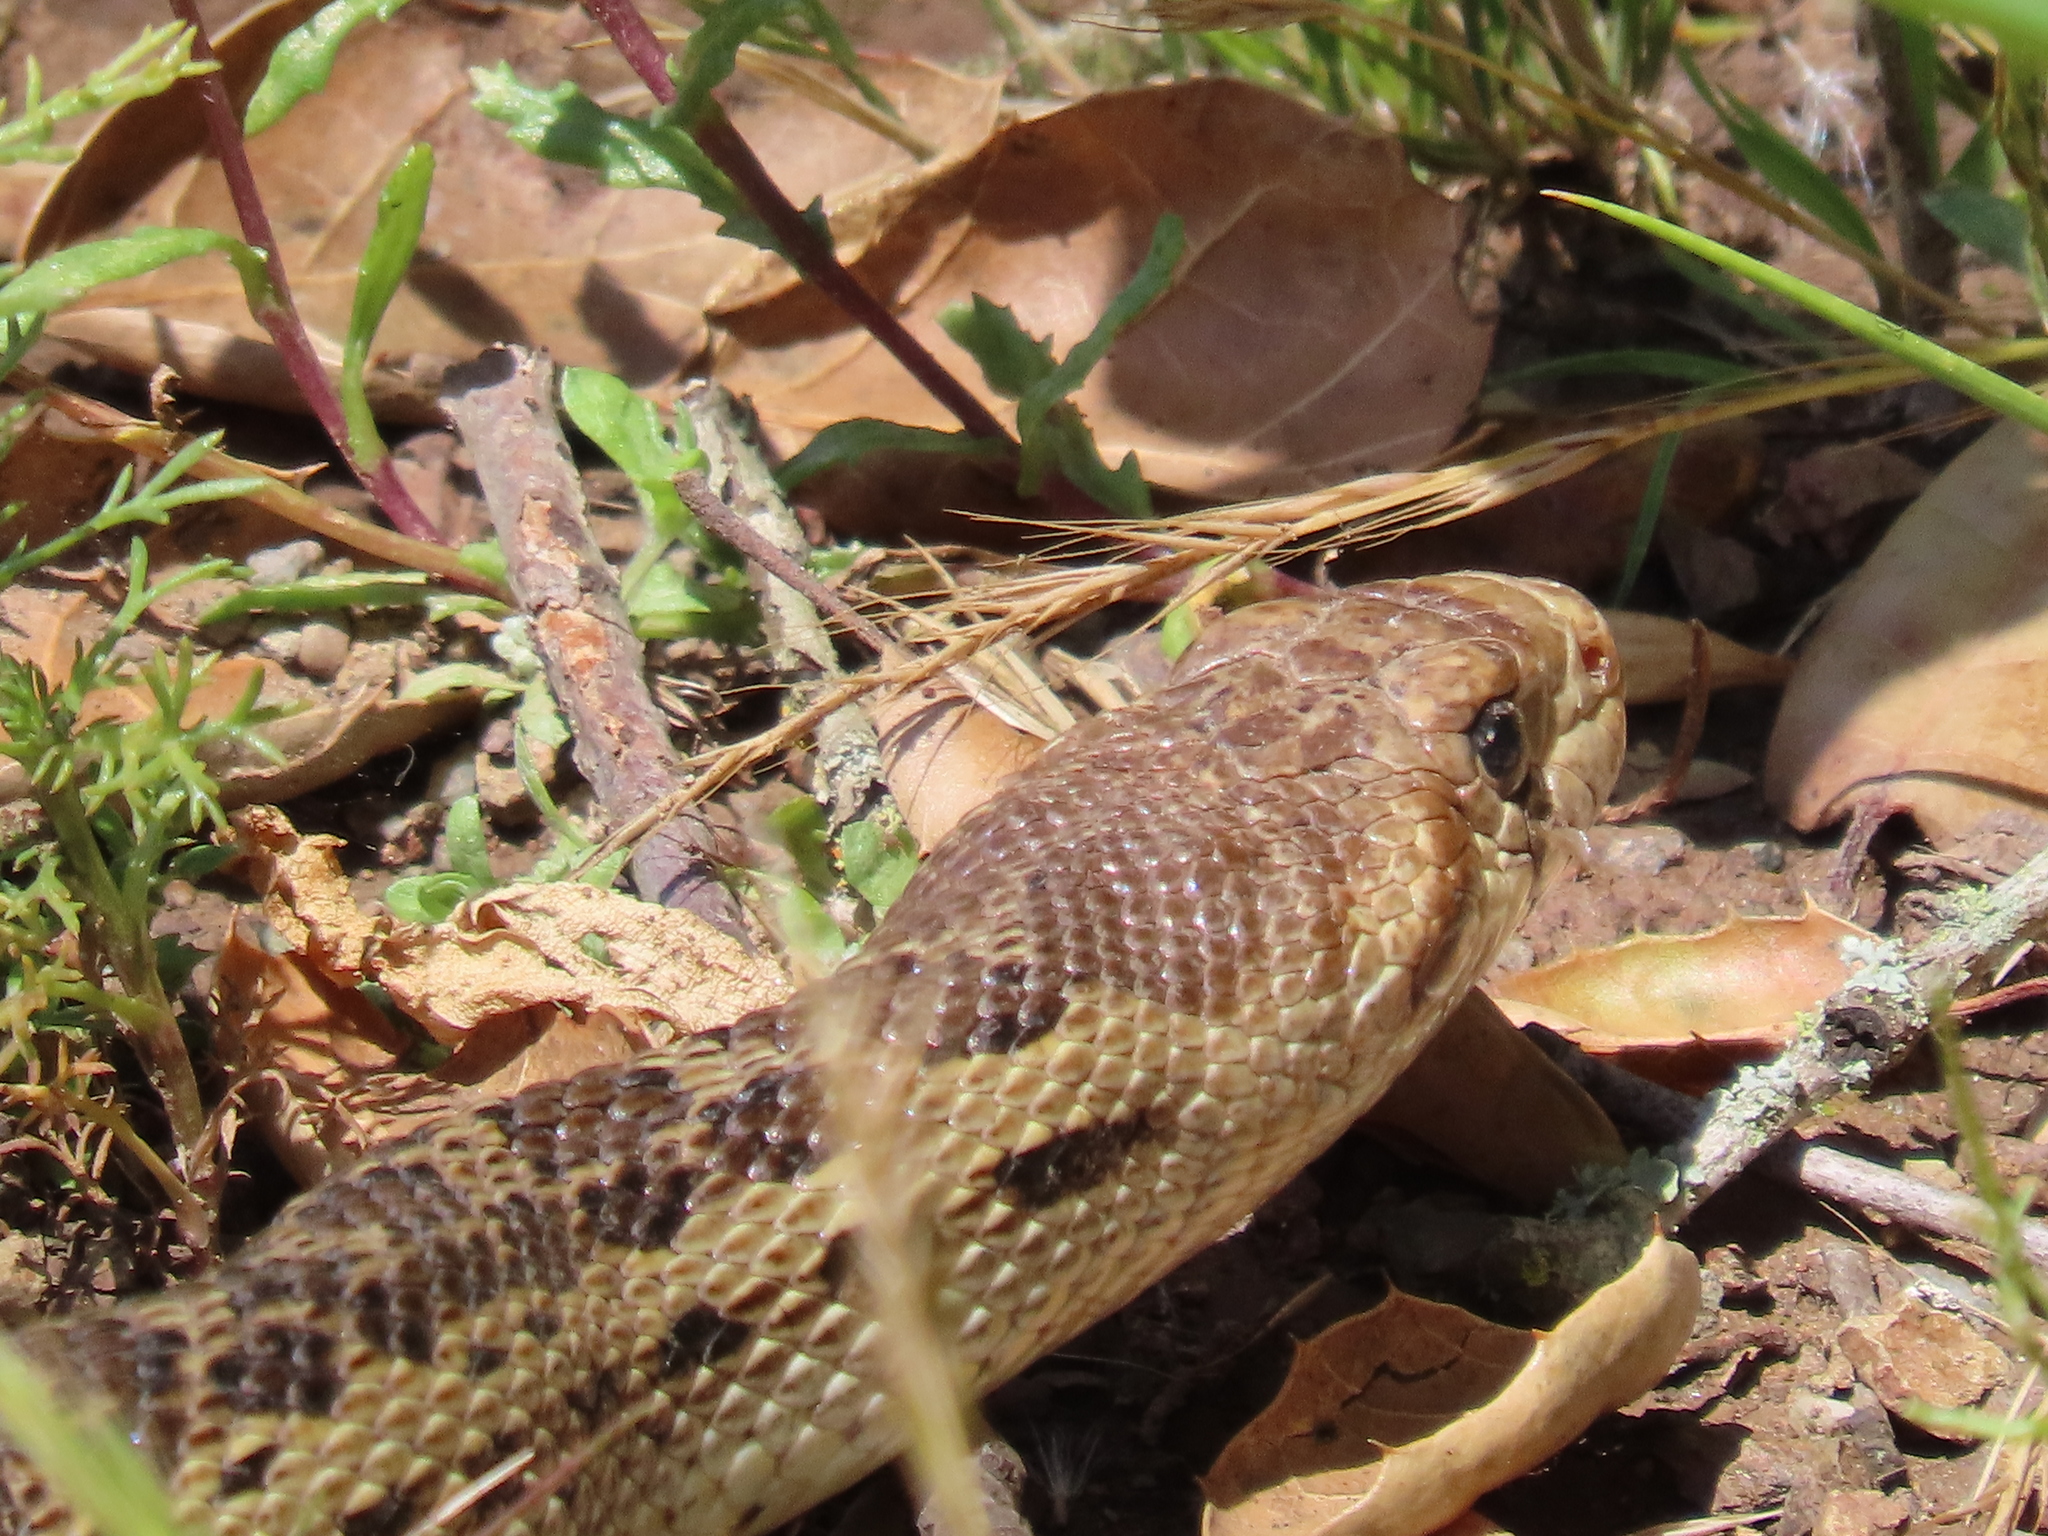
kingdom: Animalia
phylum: Chordata
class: Squamata
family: Colubridae
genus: Pituophis
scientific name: Pituophis catenifer
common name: Gopher snake
